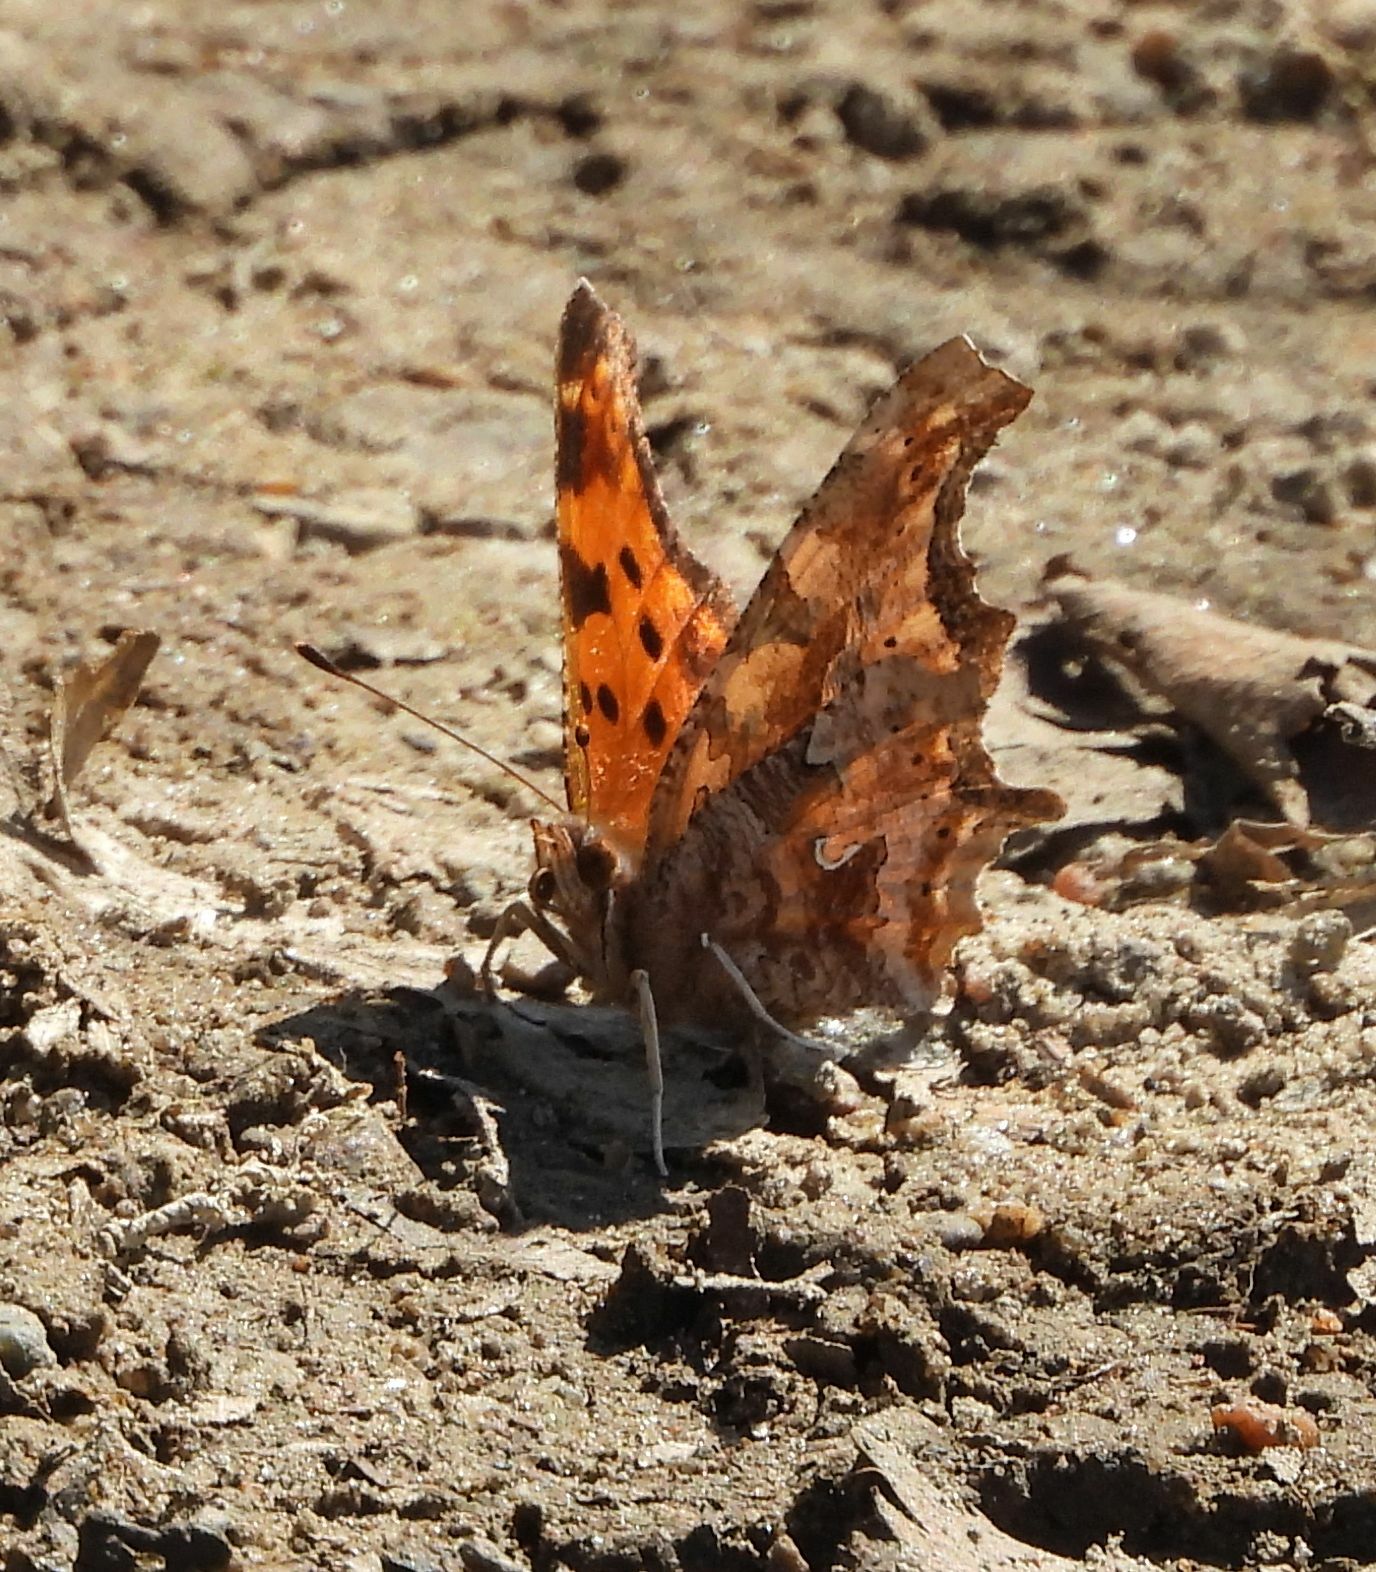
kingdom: Animalia
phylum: Arthropoda
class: Insecta
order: Lepidoptera
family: Nymphalidae
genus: Polygonia
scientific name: Polygonia comma
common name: Eastern comma
